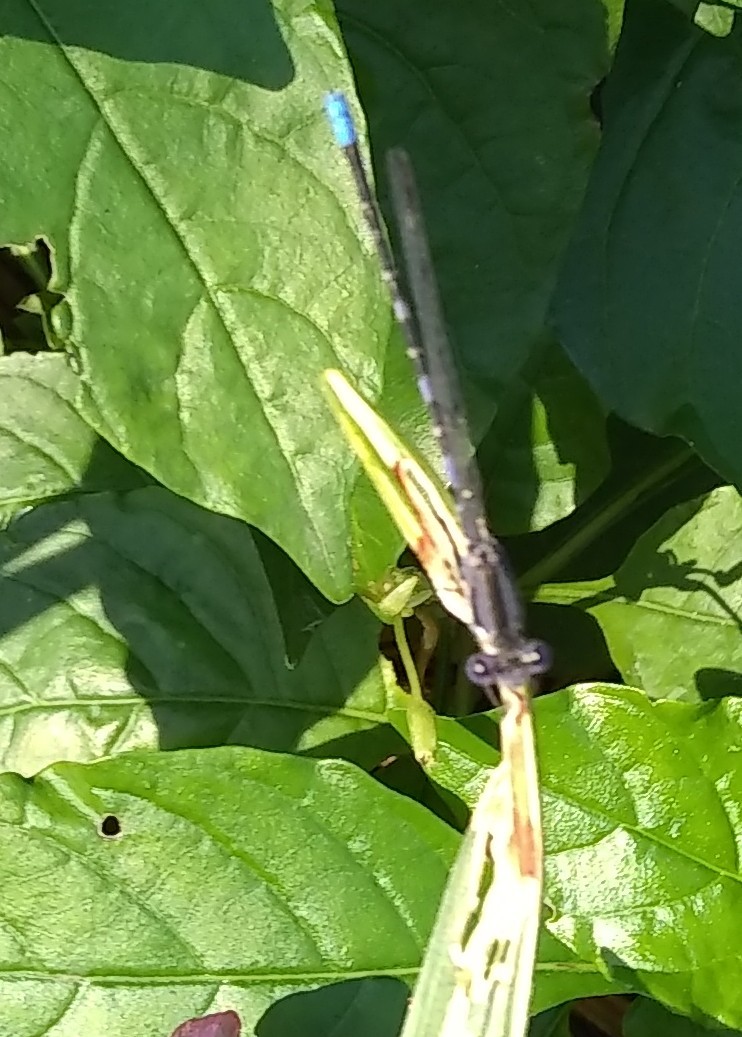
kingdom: Animalia
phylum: Arthropoda
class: Insecta
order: Odonata
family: Coenagrionidae
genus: Argia
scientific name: Argia immunda
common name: Kiowa dancer
